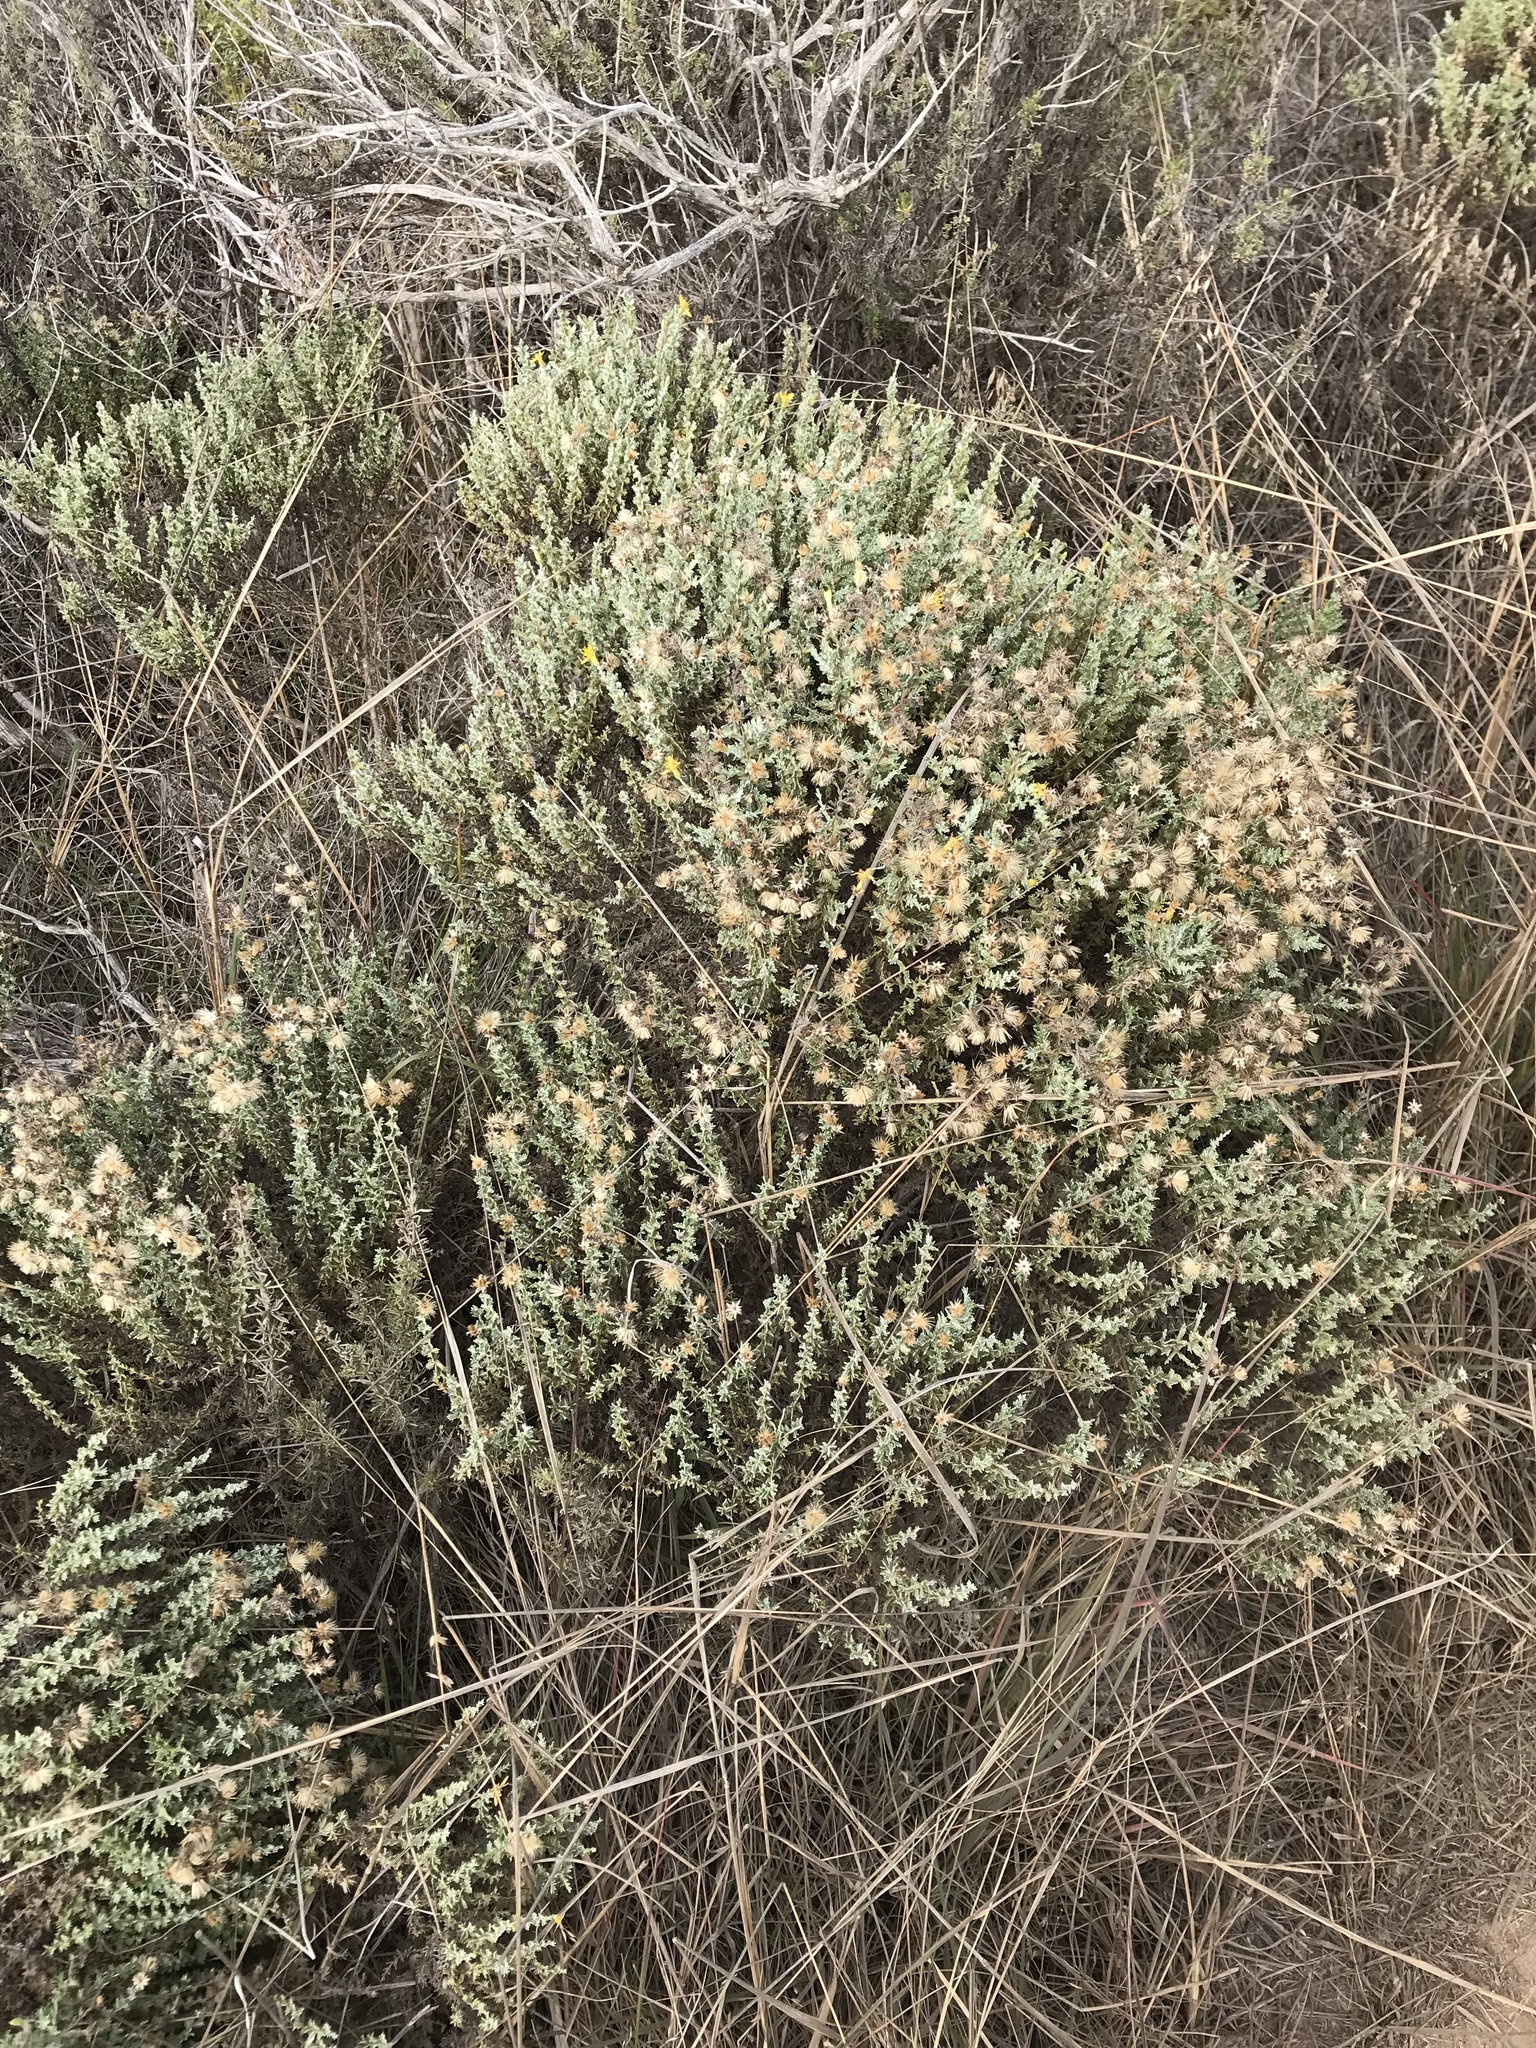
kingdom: Plantae
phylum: Tracheophyta
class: Magnoliopsida
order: Asterales
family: Asteraceae
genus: Ericameria
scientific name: Ericameria ericoides
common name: California goldenbush
